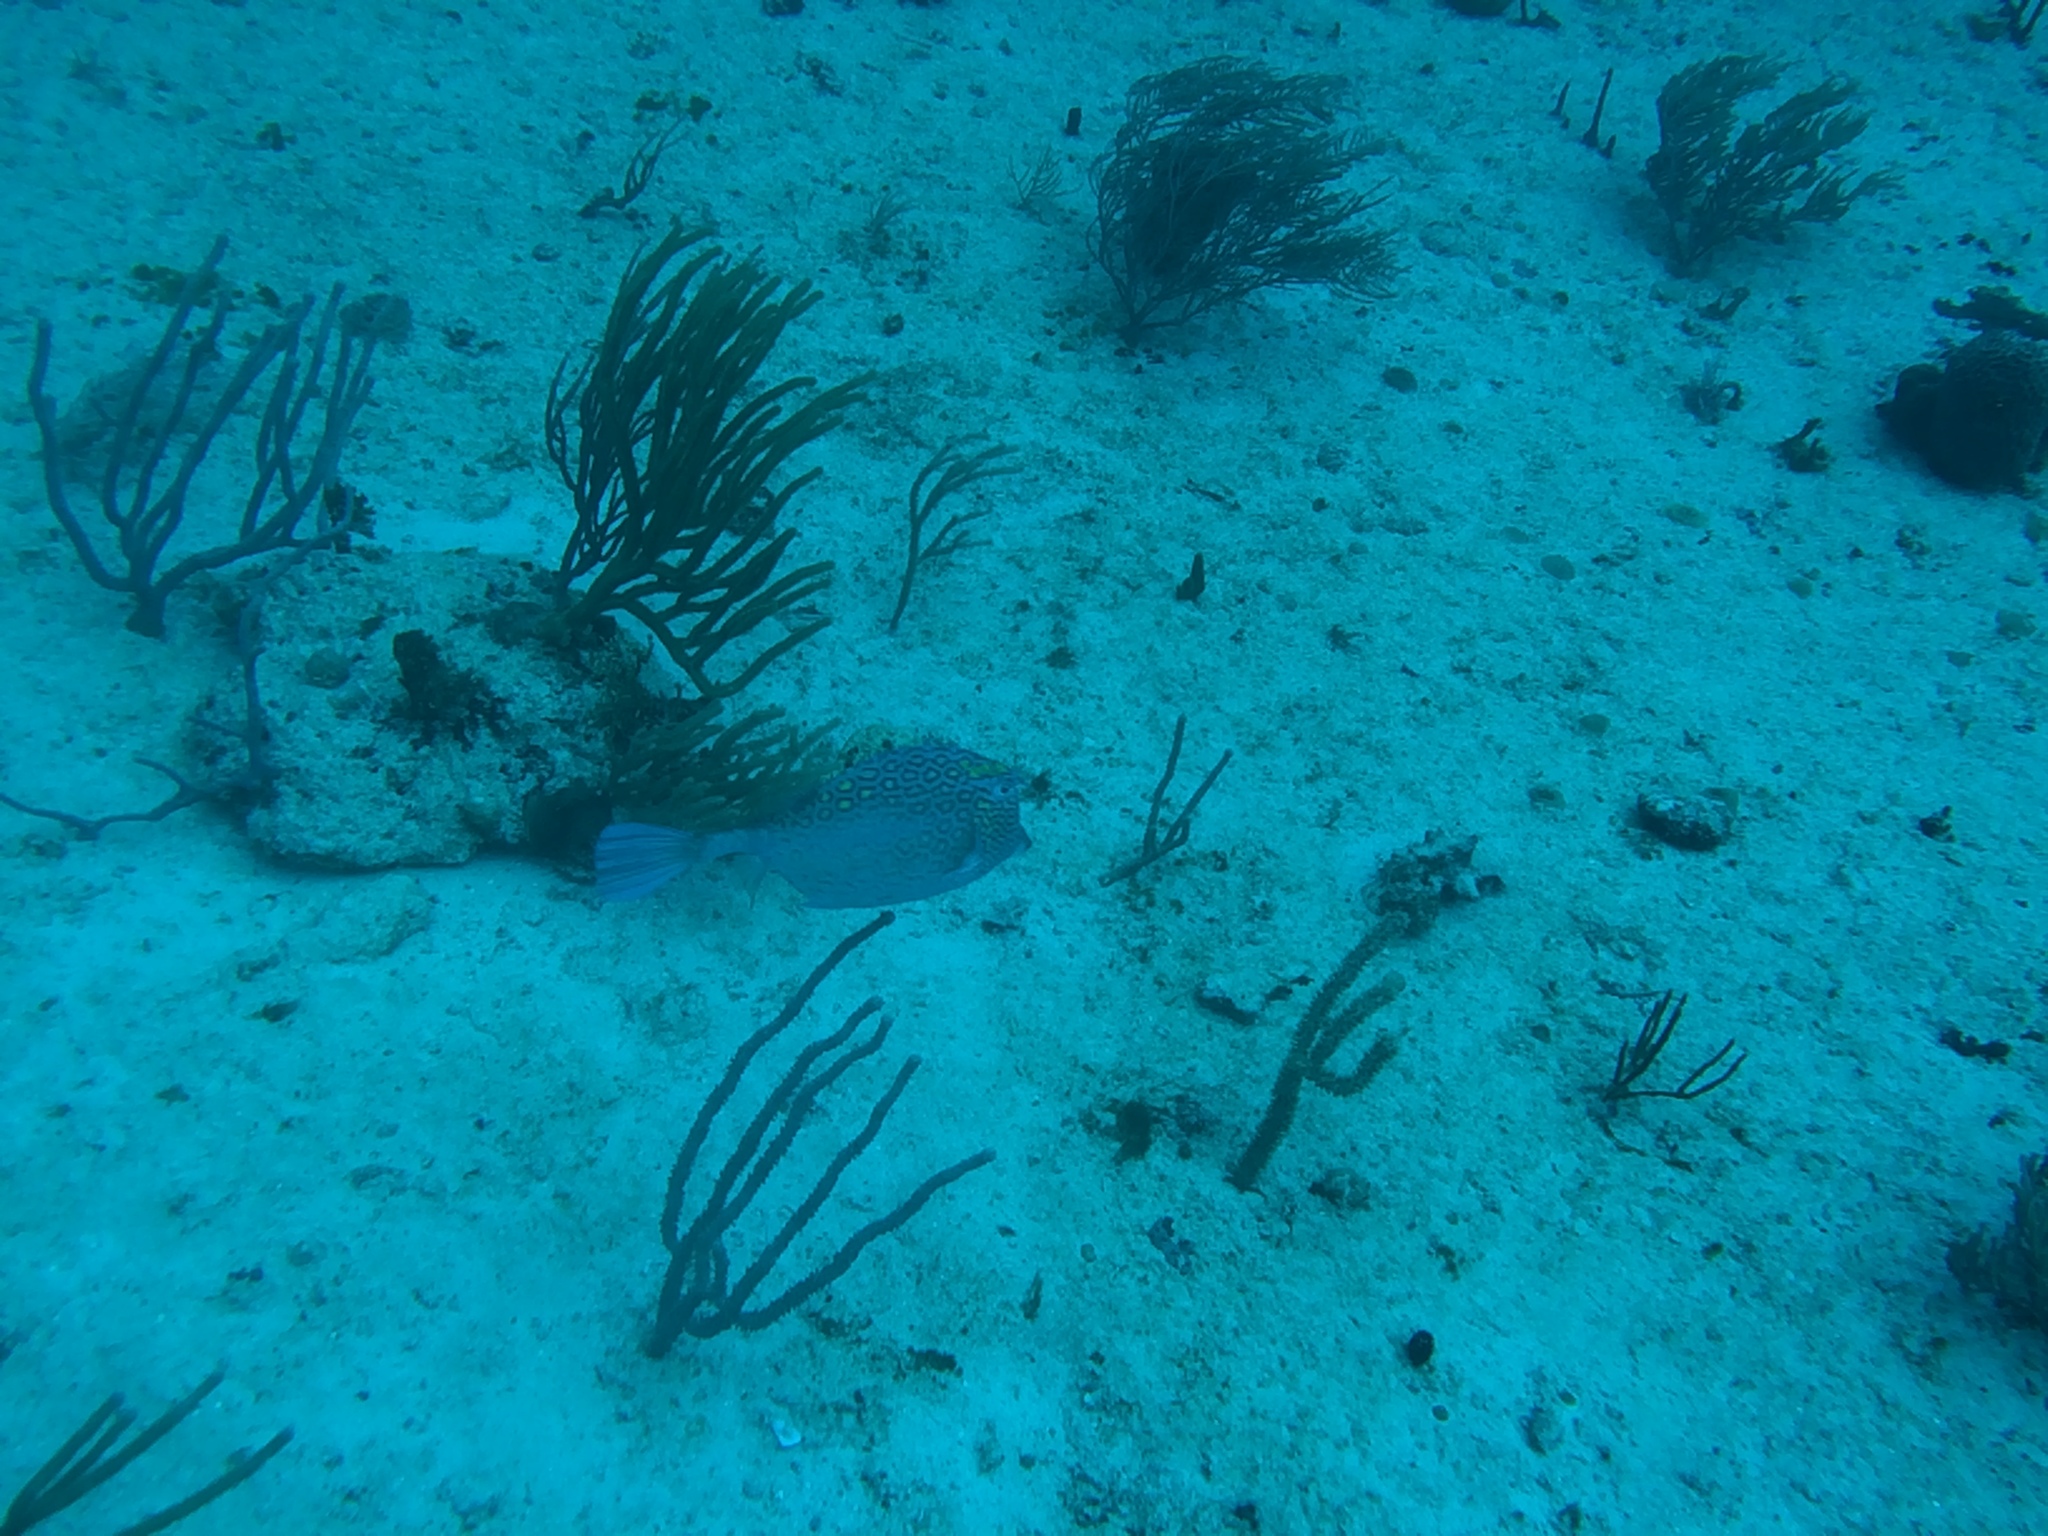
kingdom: Animalia
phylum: Chordata
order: Tetraodontiformes
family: Ostraciidae
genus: Acanthostracion
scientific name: Acanthostracion polygonius
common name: Honeycomb cowfish
